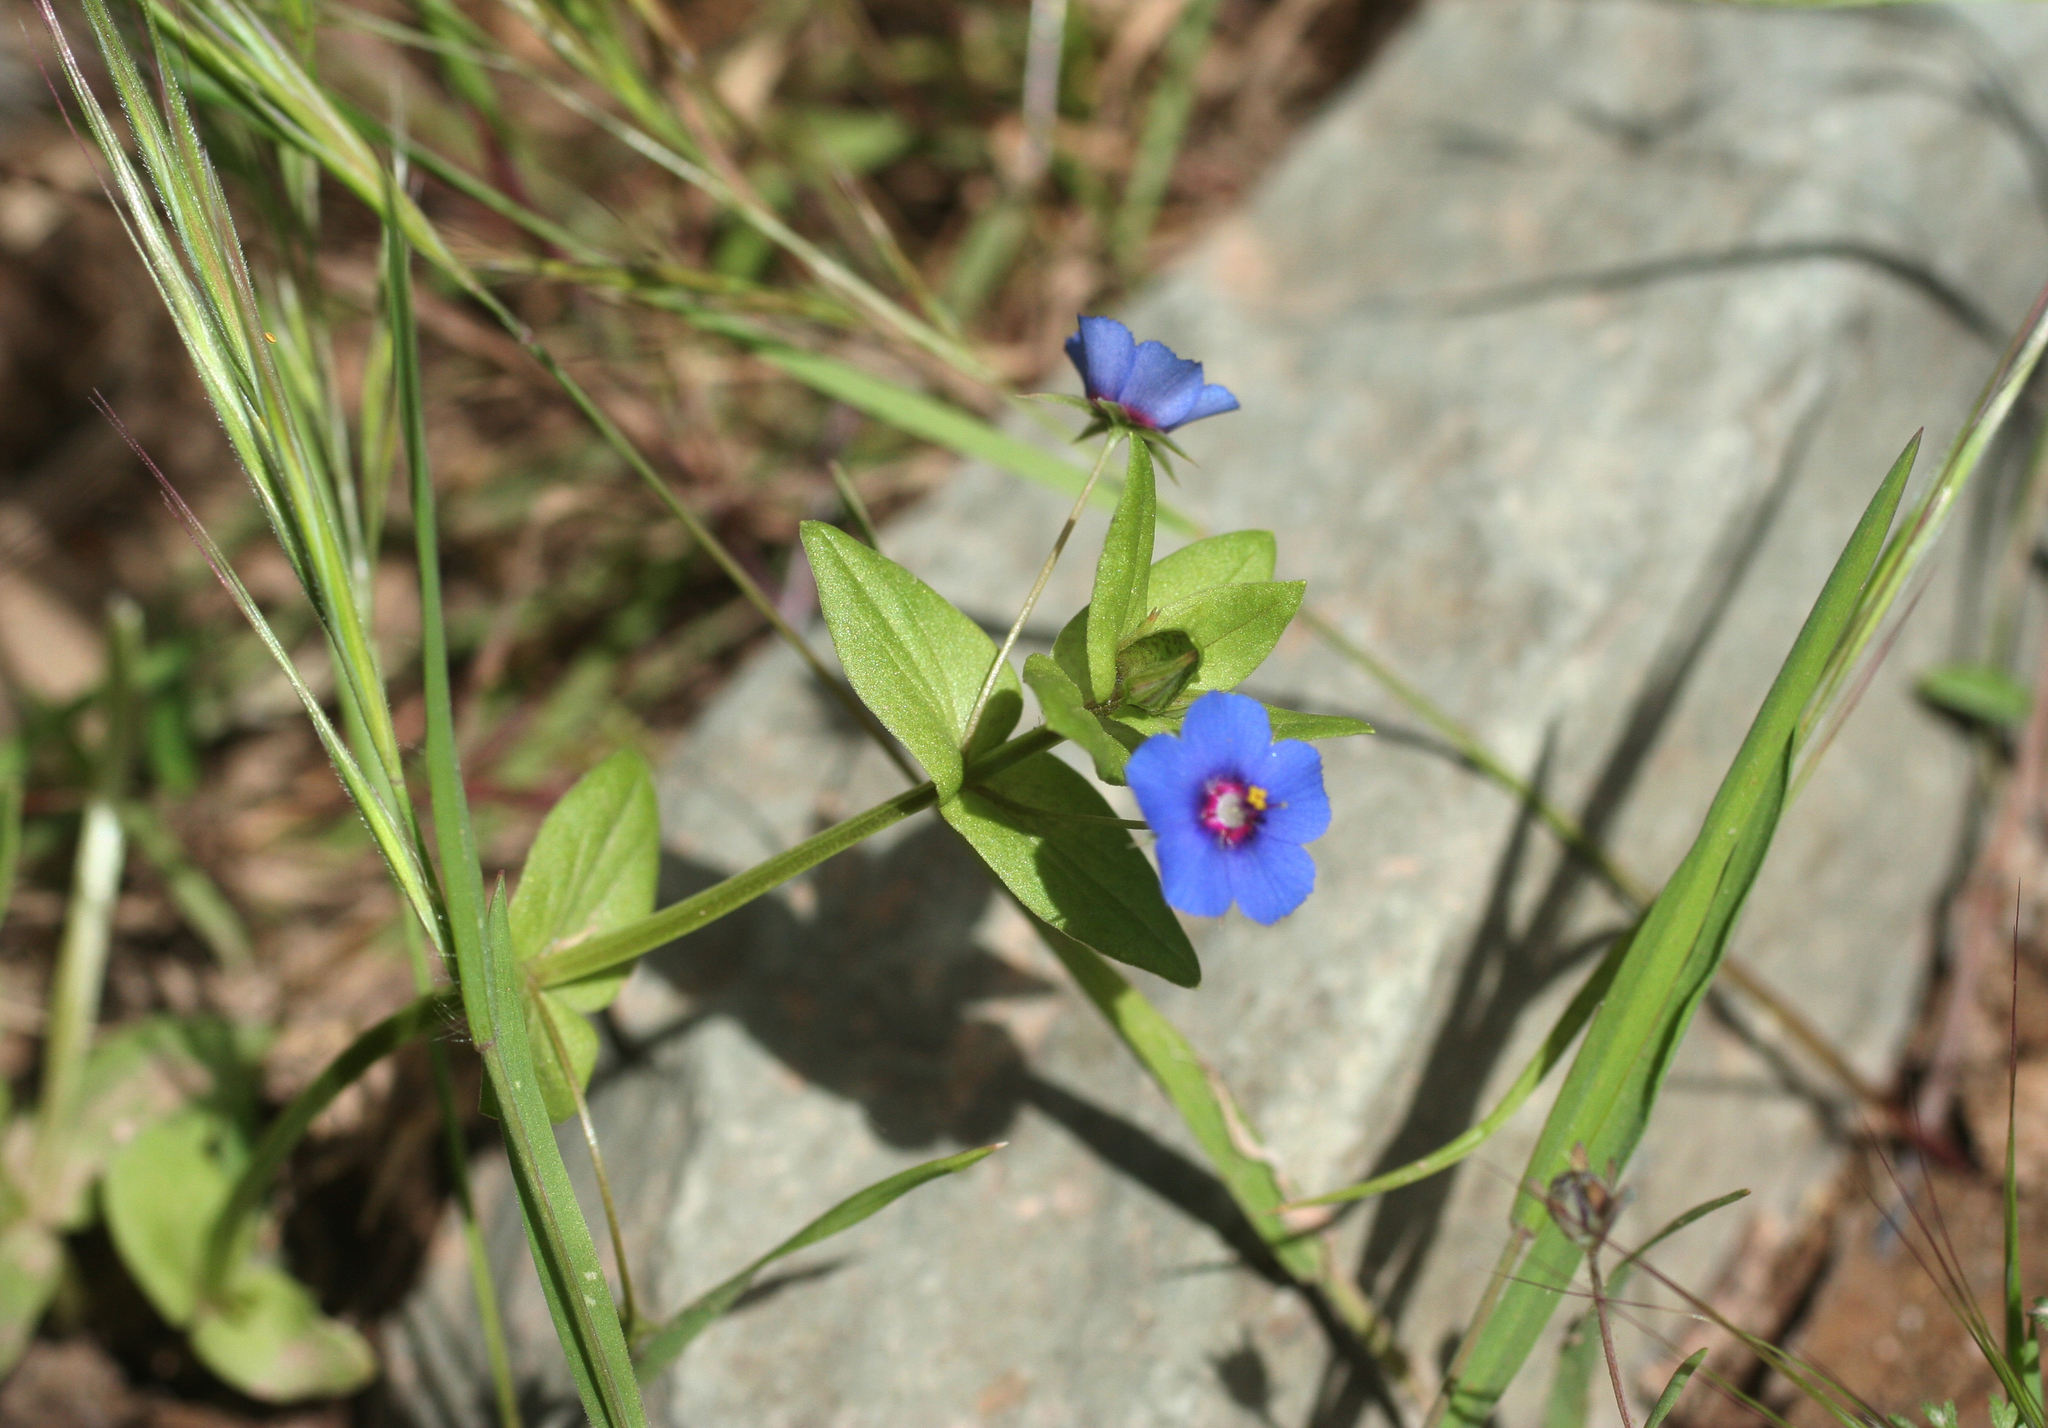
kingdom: Plantae
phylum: Tracheophyta
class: Magnoliopsida
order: Ericales
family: Primulaceae
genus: Lysimachia
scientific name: Lysimachia loeflingii
